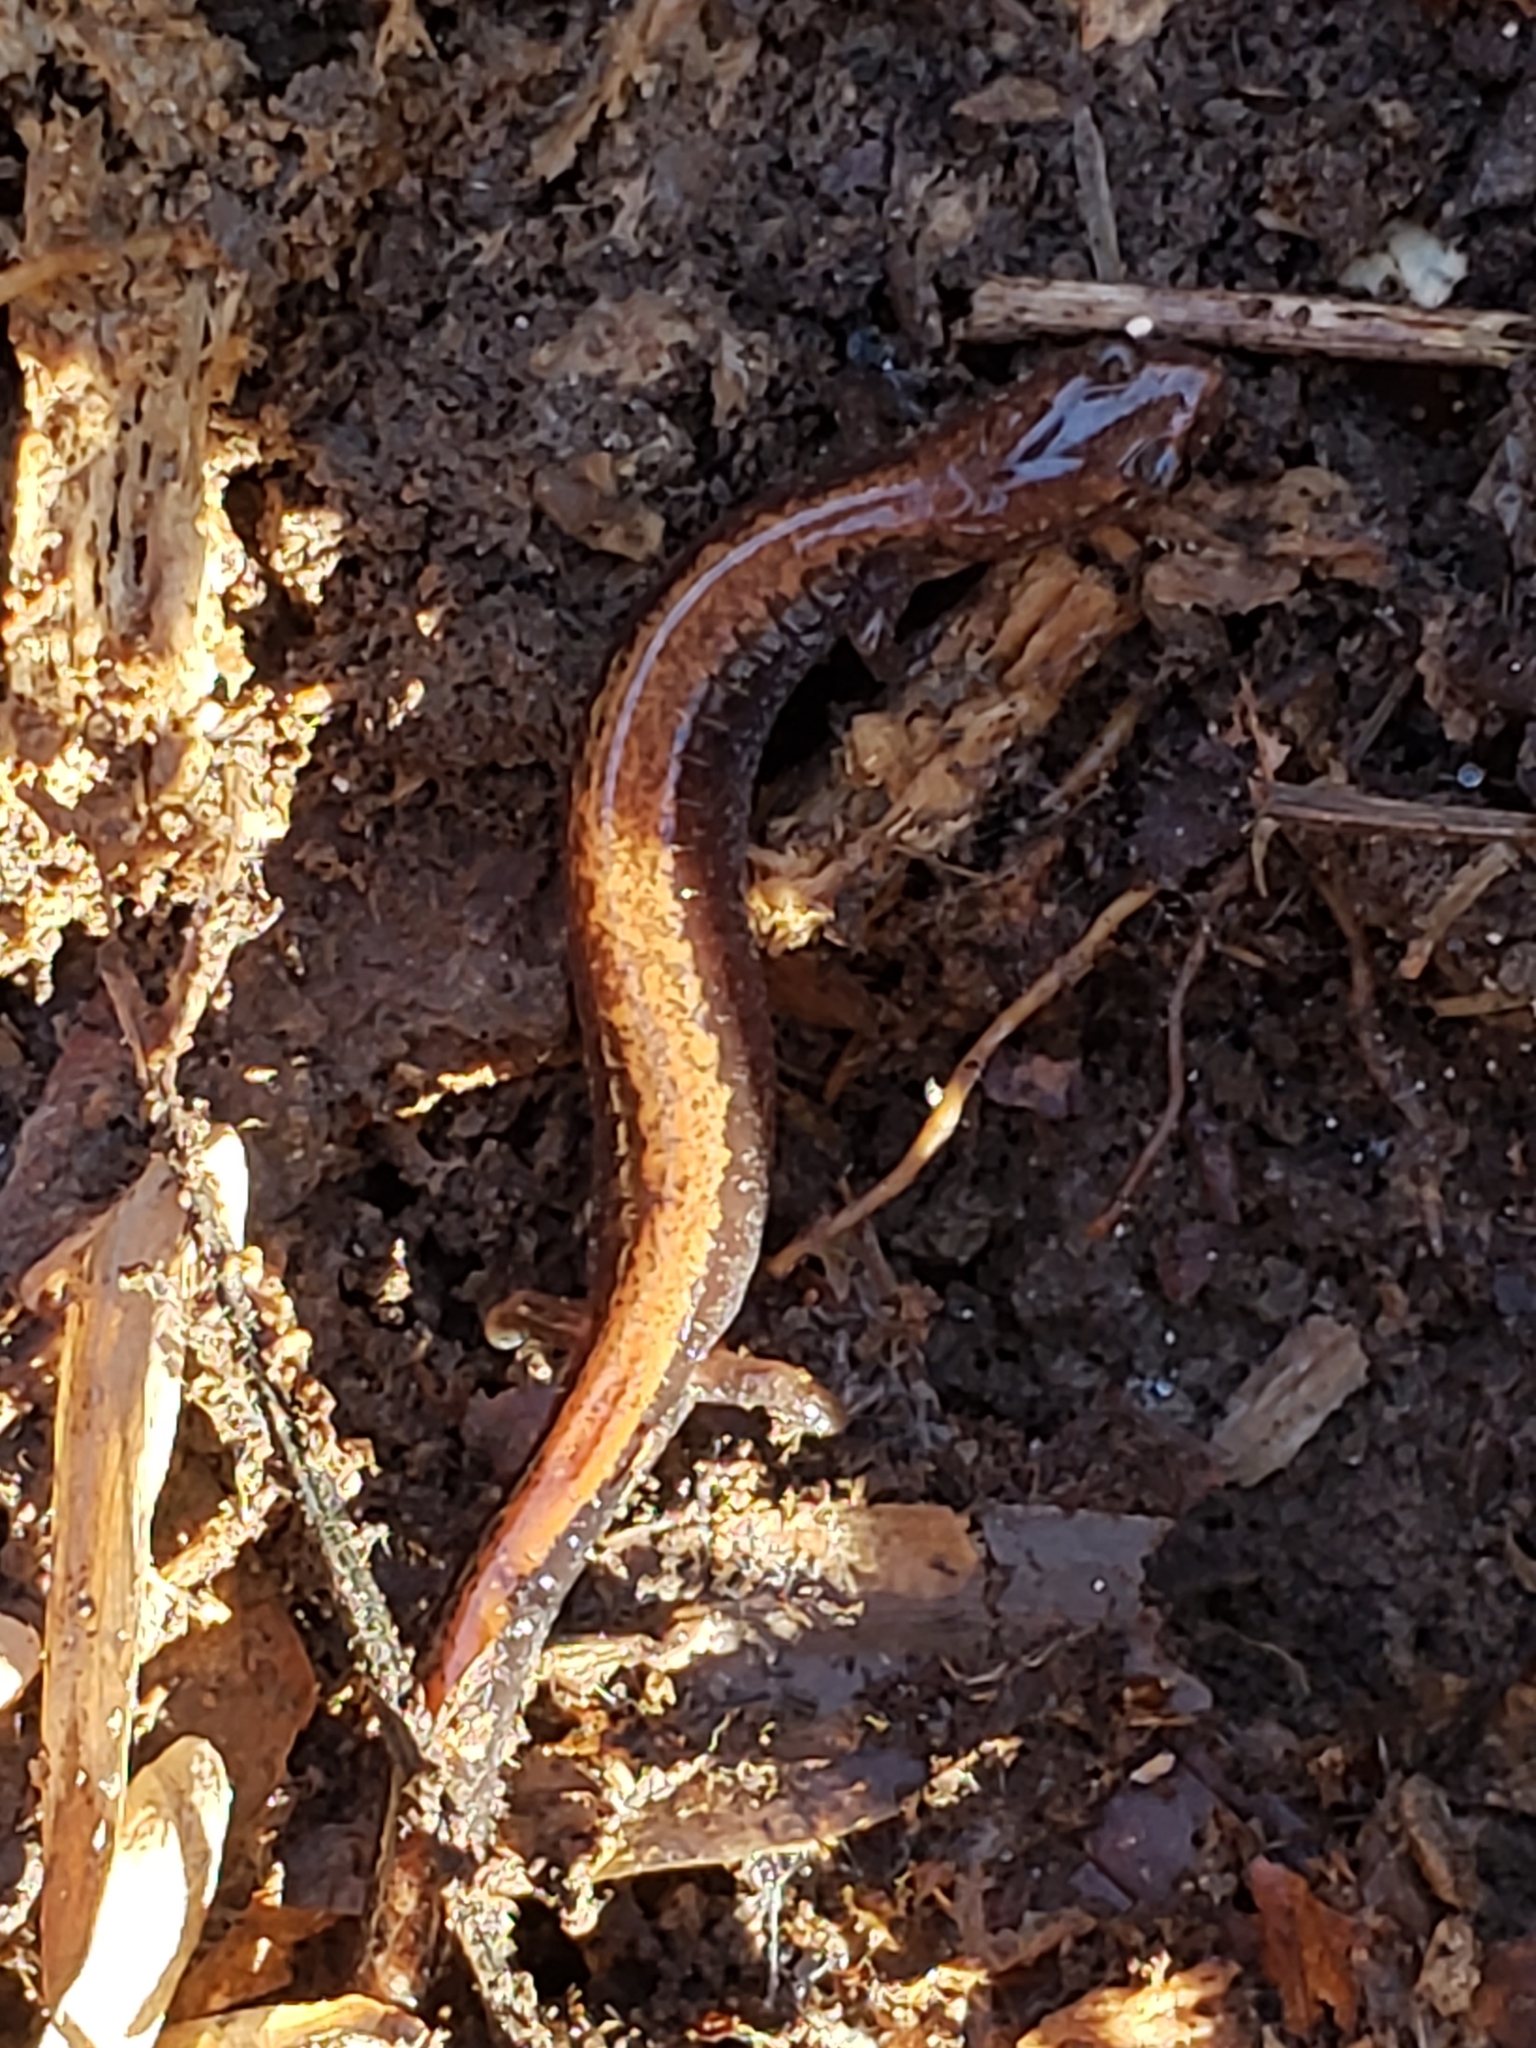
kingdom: Animalia
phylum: Chordata
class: Amphibia
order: Caudata
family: Plethodontidae
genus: Plethodon
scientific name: Plethodon cinereus
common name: Redback salamander
